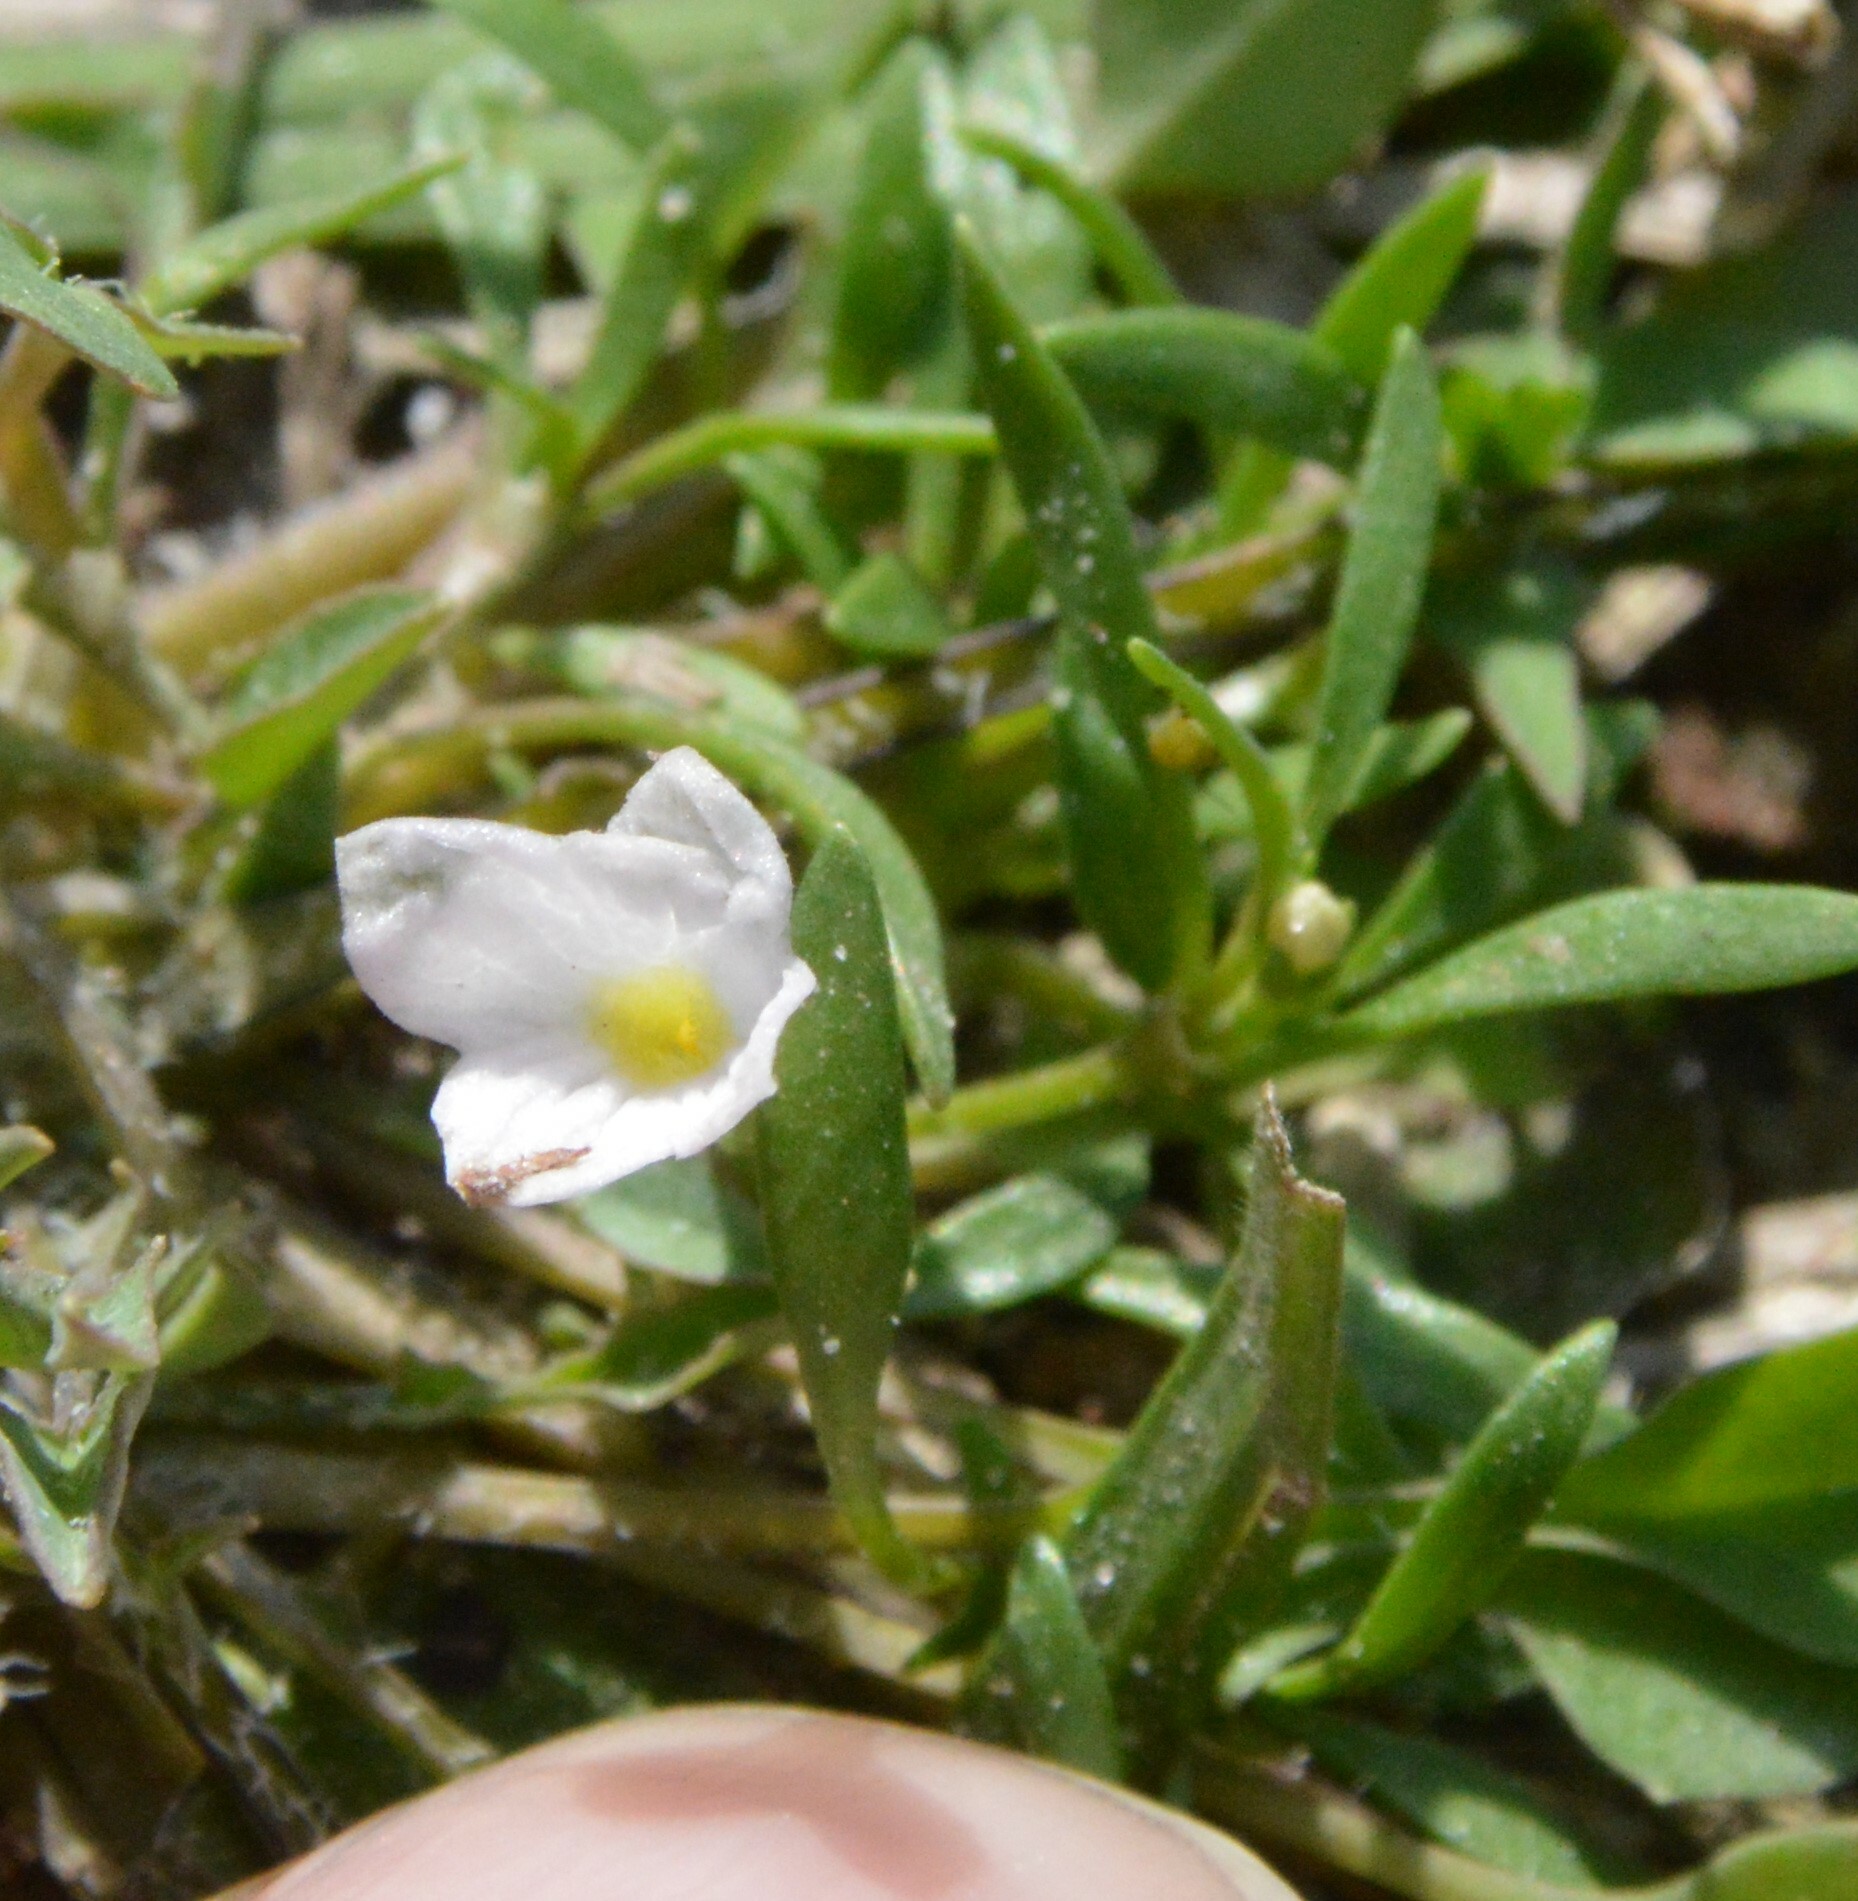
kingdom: Plantae
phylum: Tracheophyta
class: Magnoliopsida
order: Gentianales
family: Rubiaceae
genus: Houstonia
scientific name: Houstonia rosea
